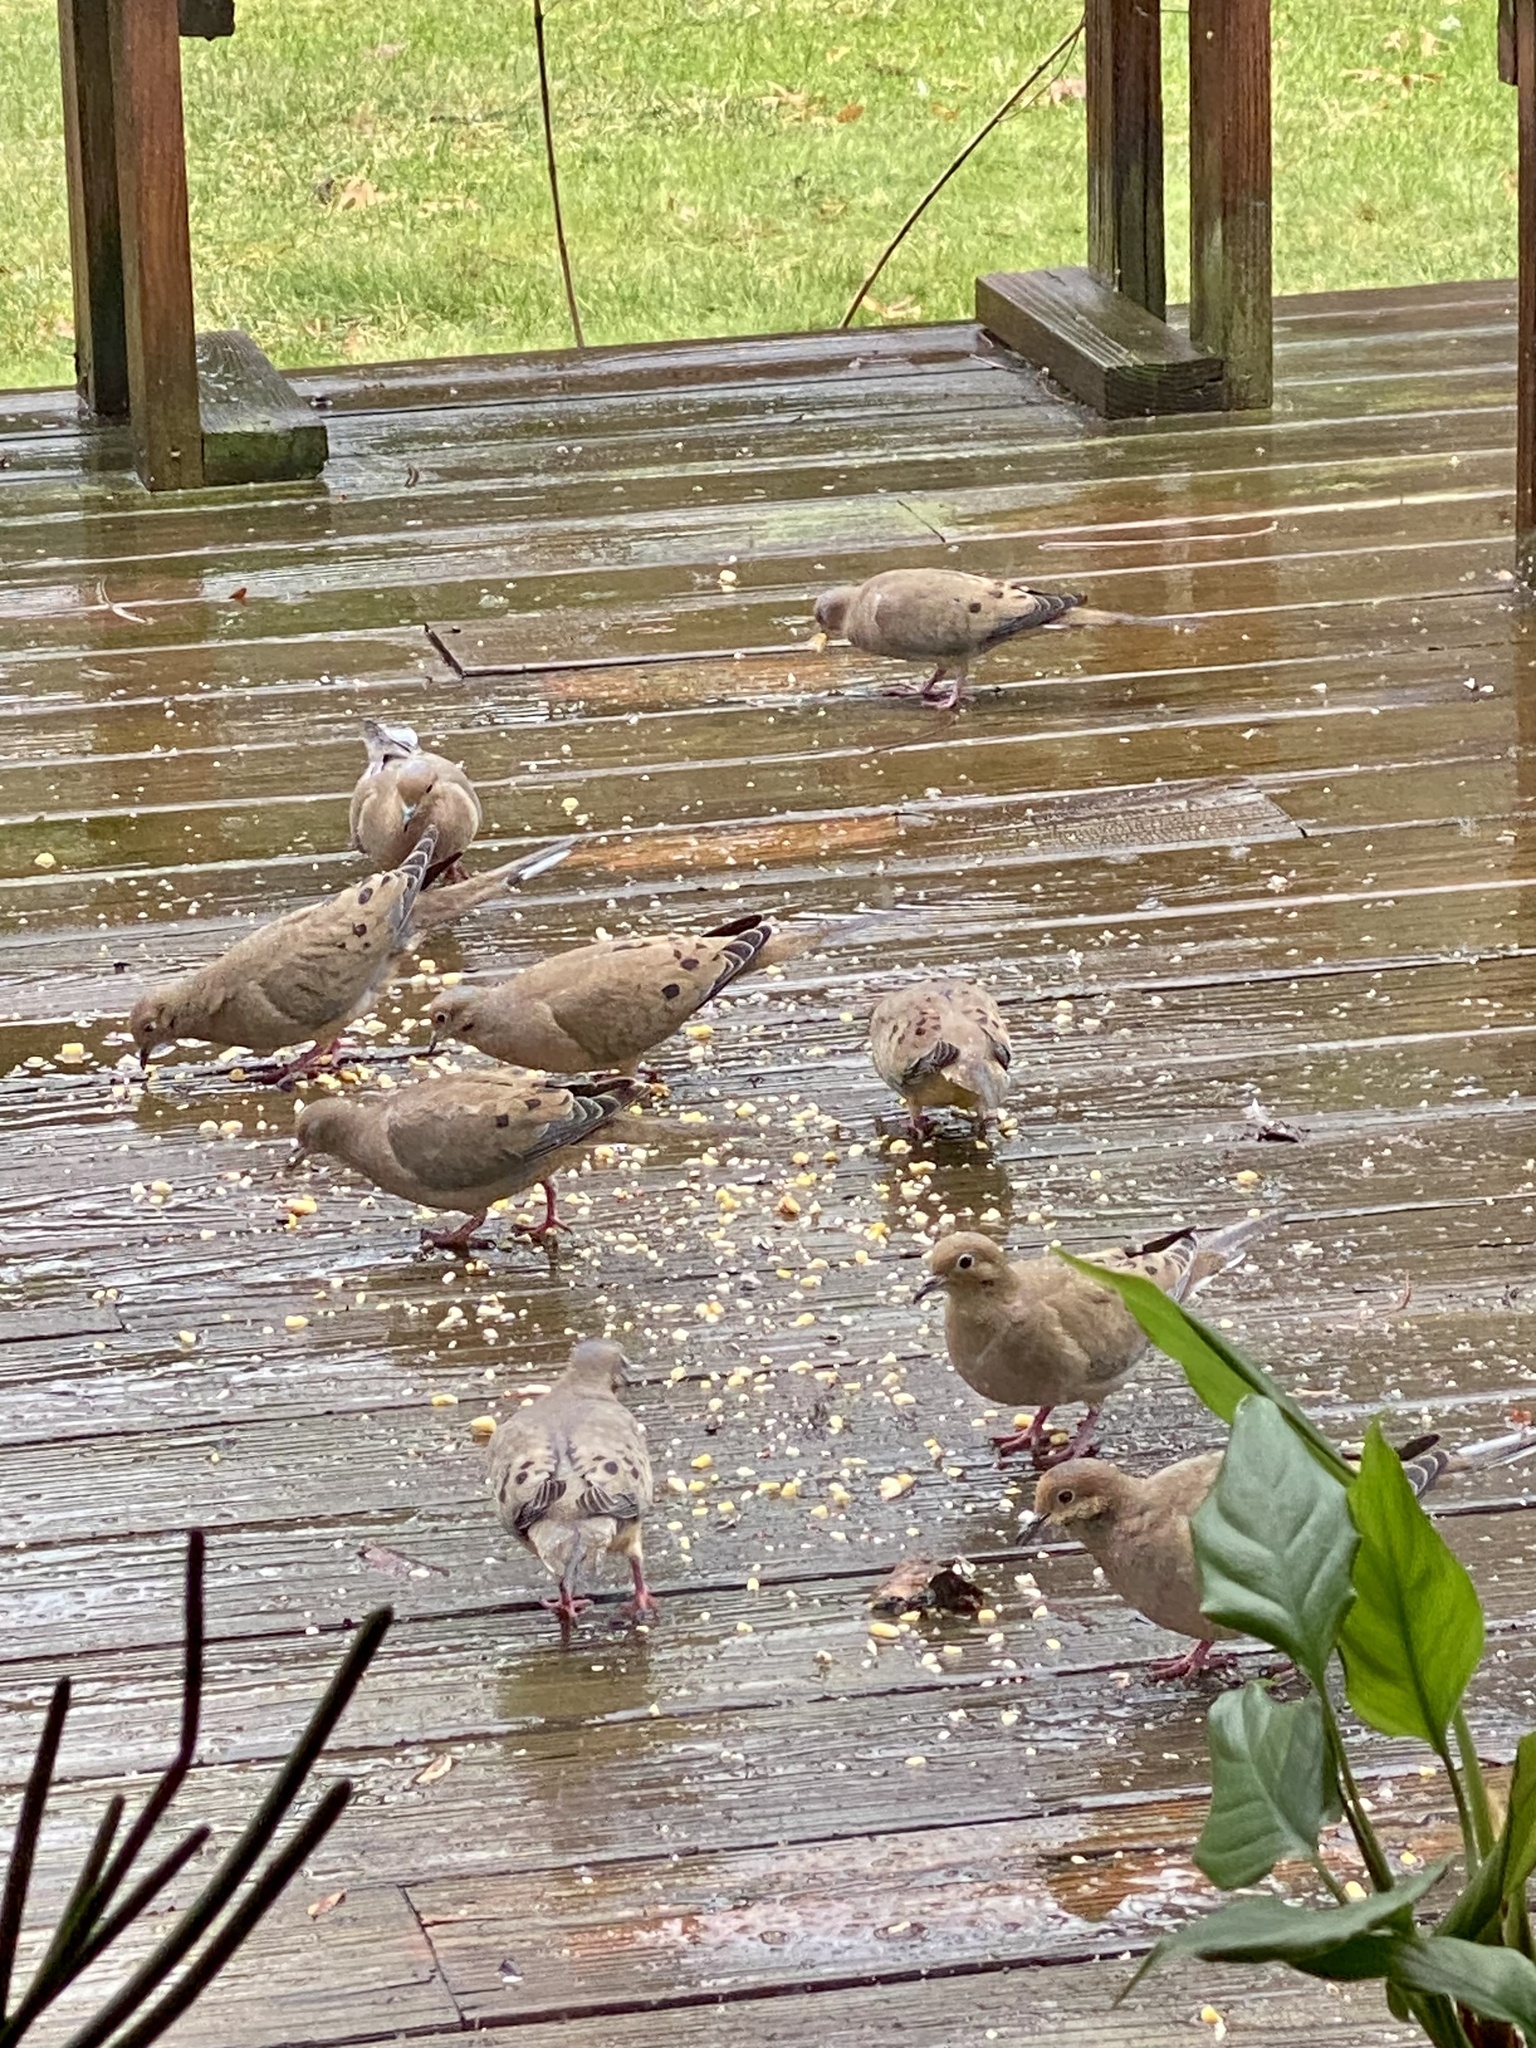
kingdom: Animalia
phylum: Chordata
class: Aves
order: Columbiformes
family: Columbidae
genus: Zenaida
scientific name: Zenaida macroura
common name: Mourning dove
